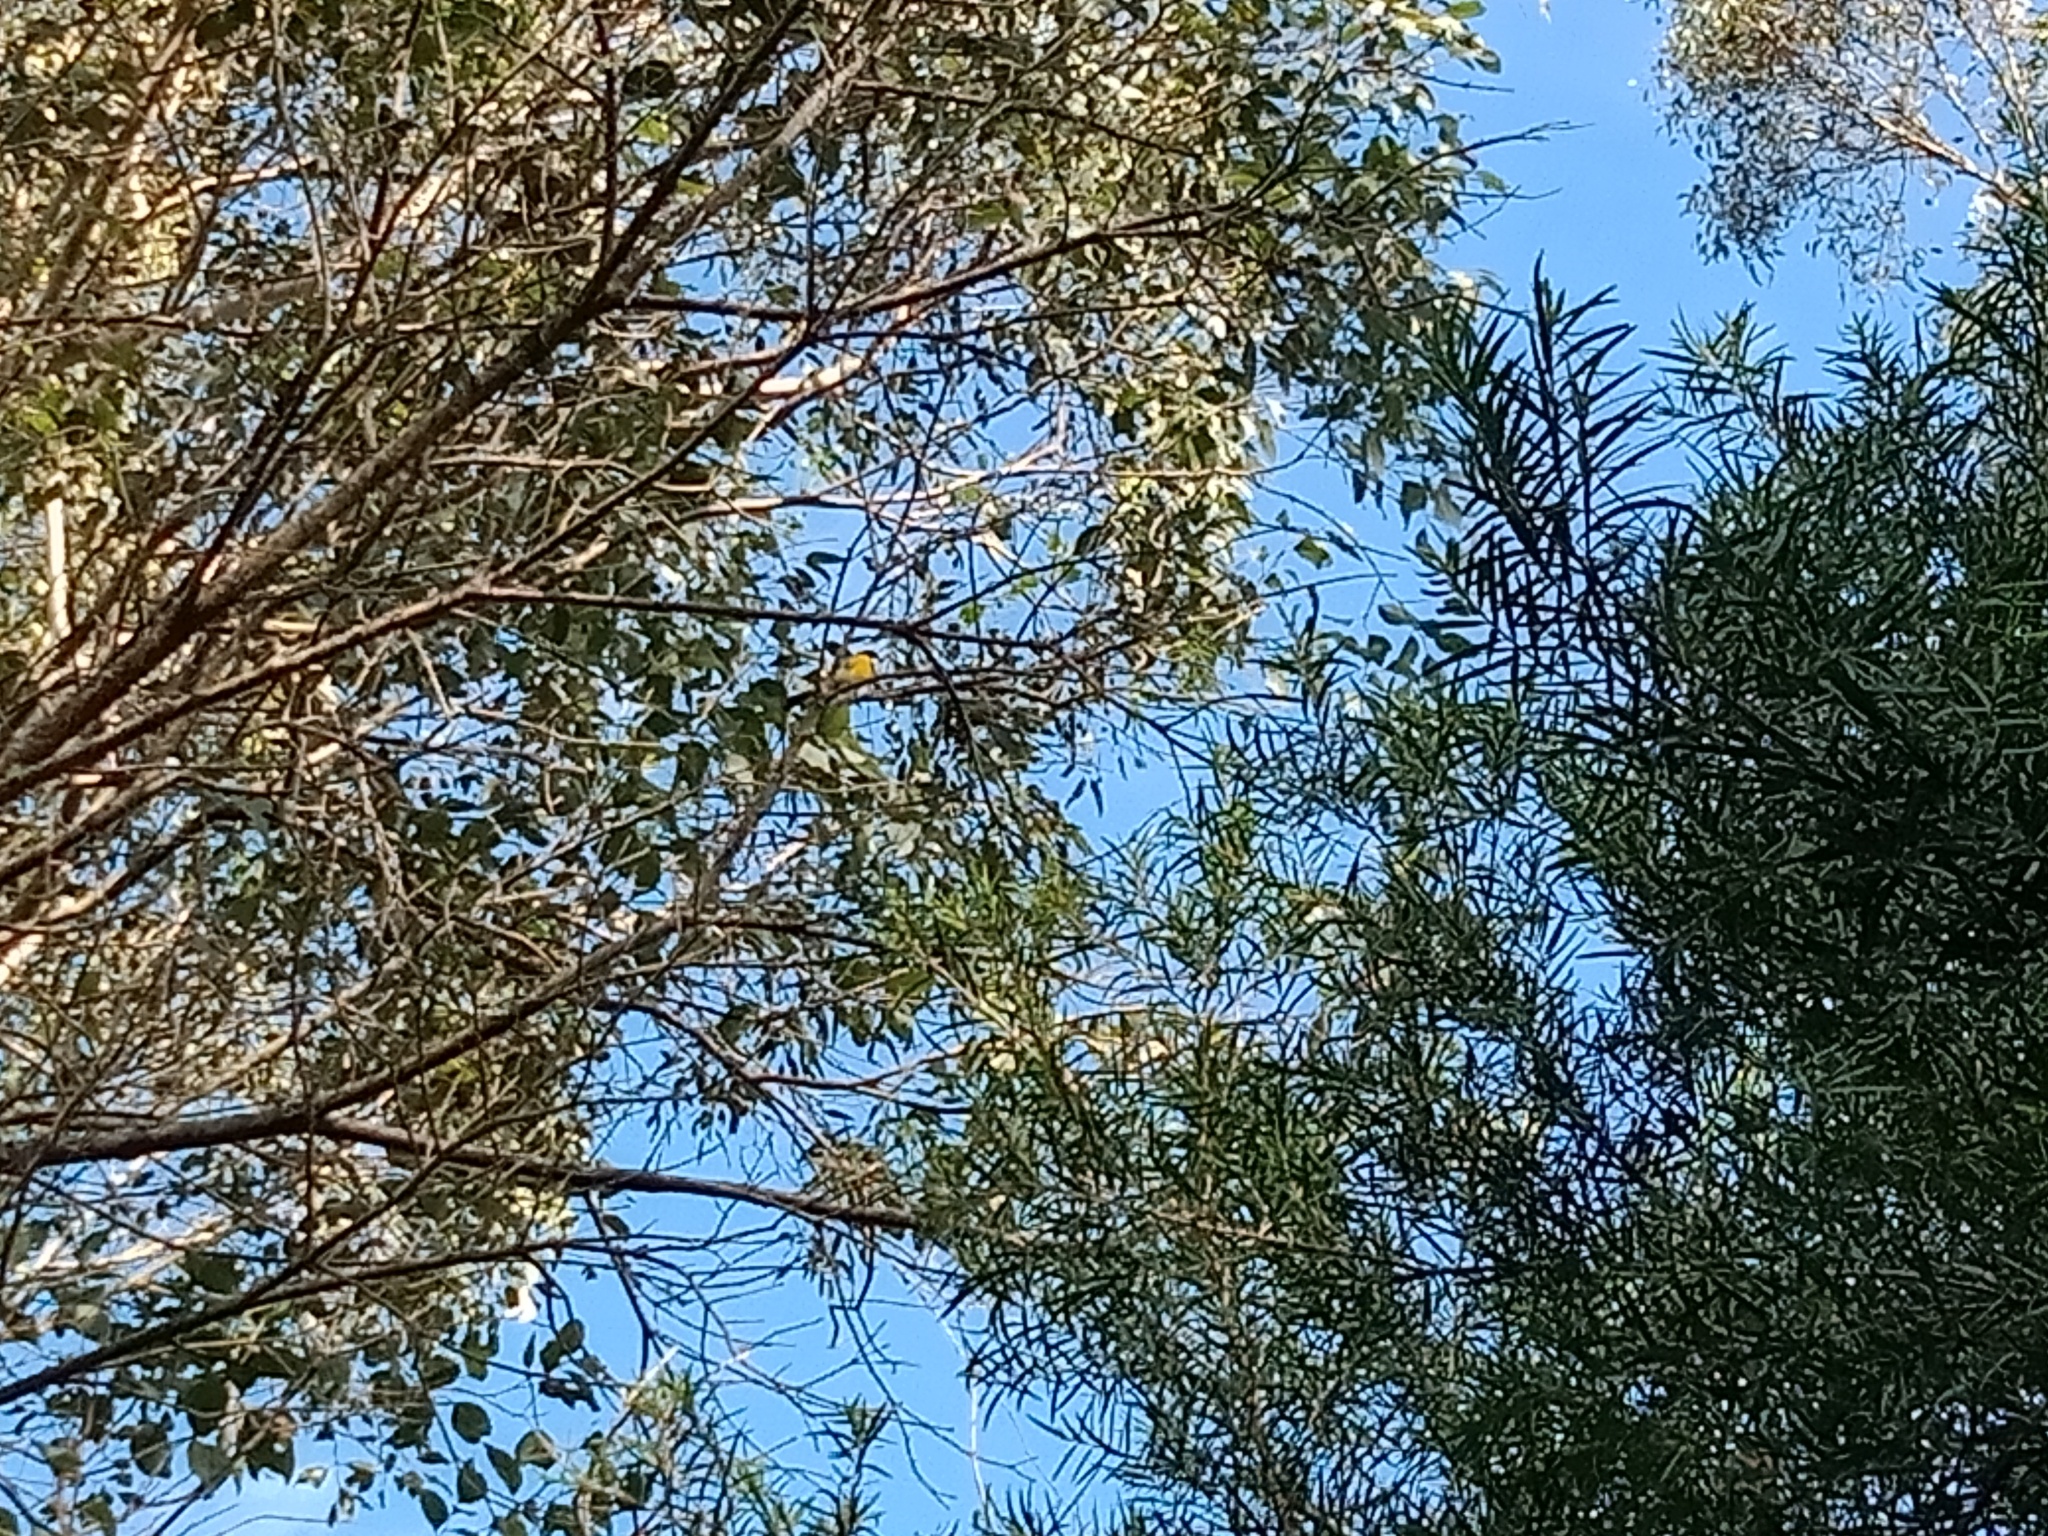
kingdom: Animalia
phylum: Chordata
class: Aves
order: Passeriformes
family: Pachycephalidae
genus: Pachycephala
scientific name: Pachycephala pectoralis
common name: Australian golden whistler
